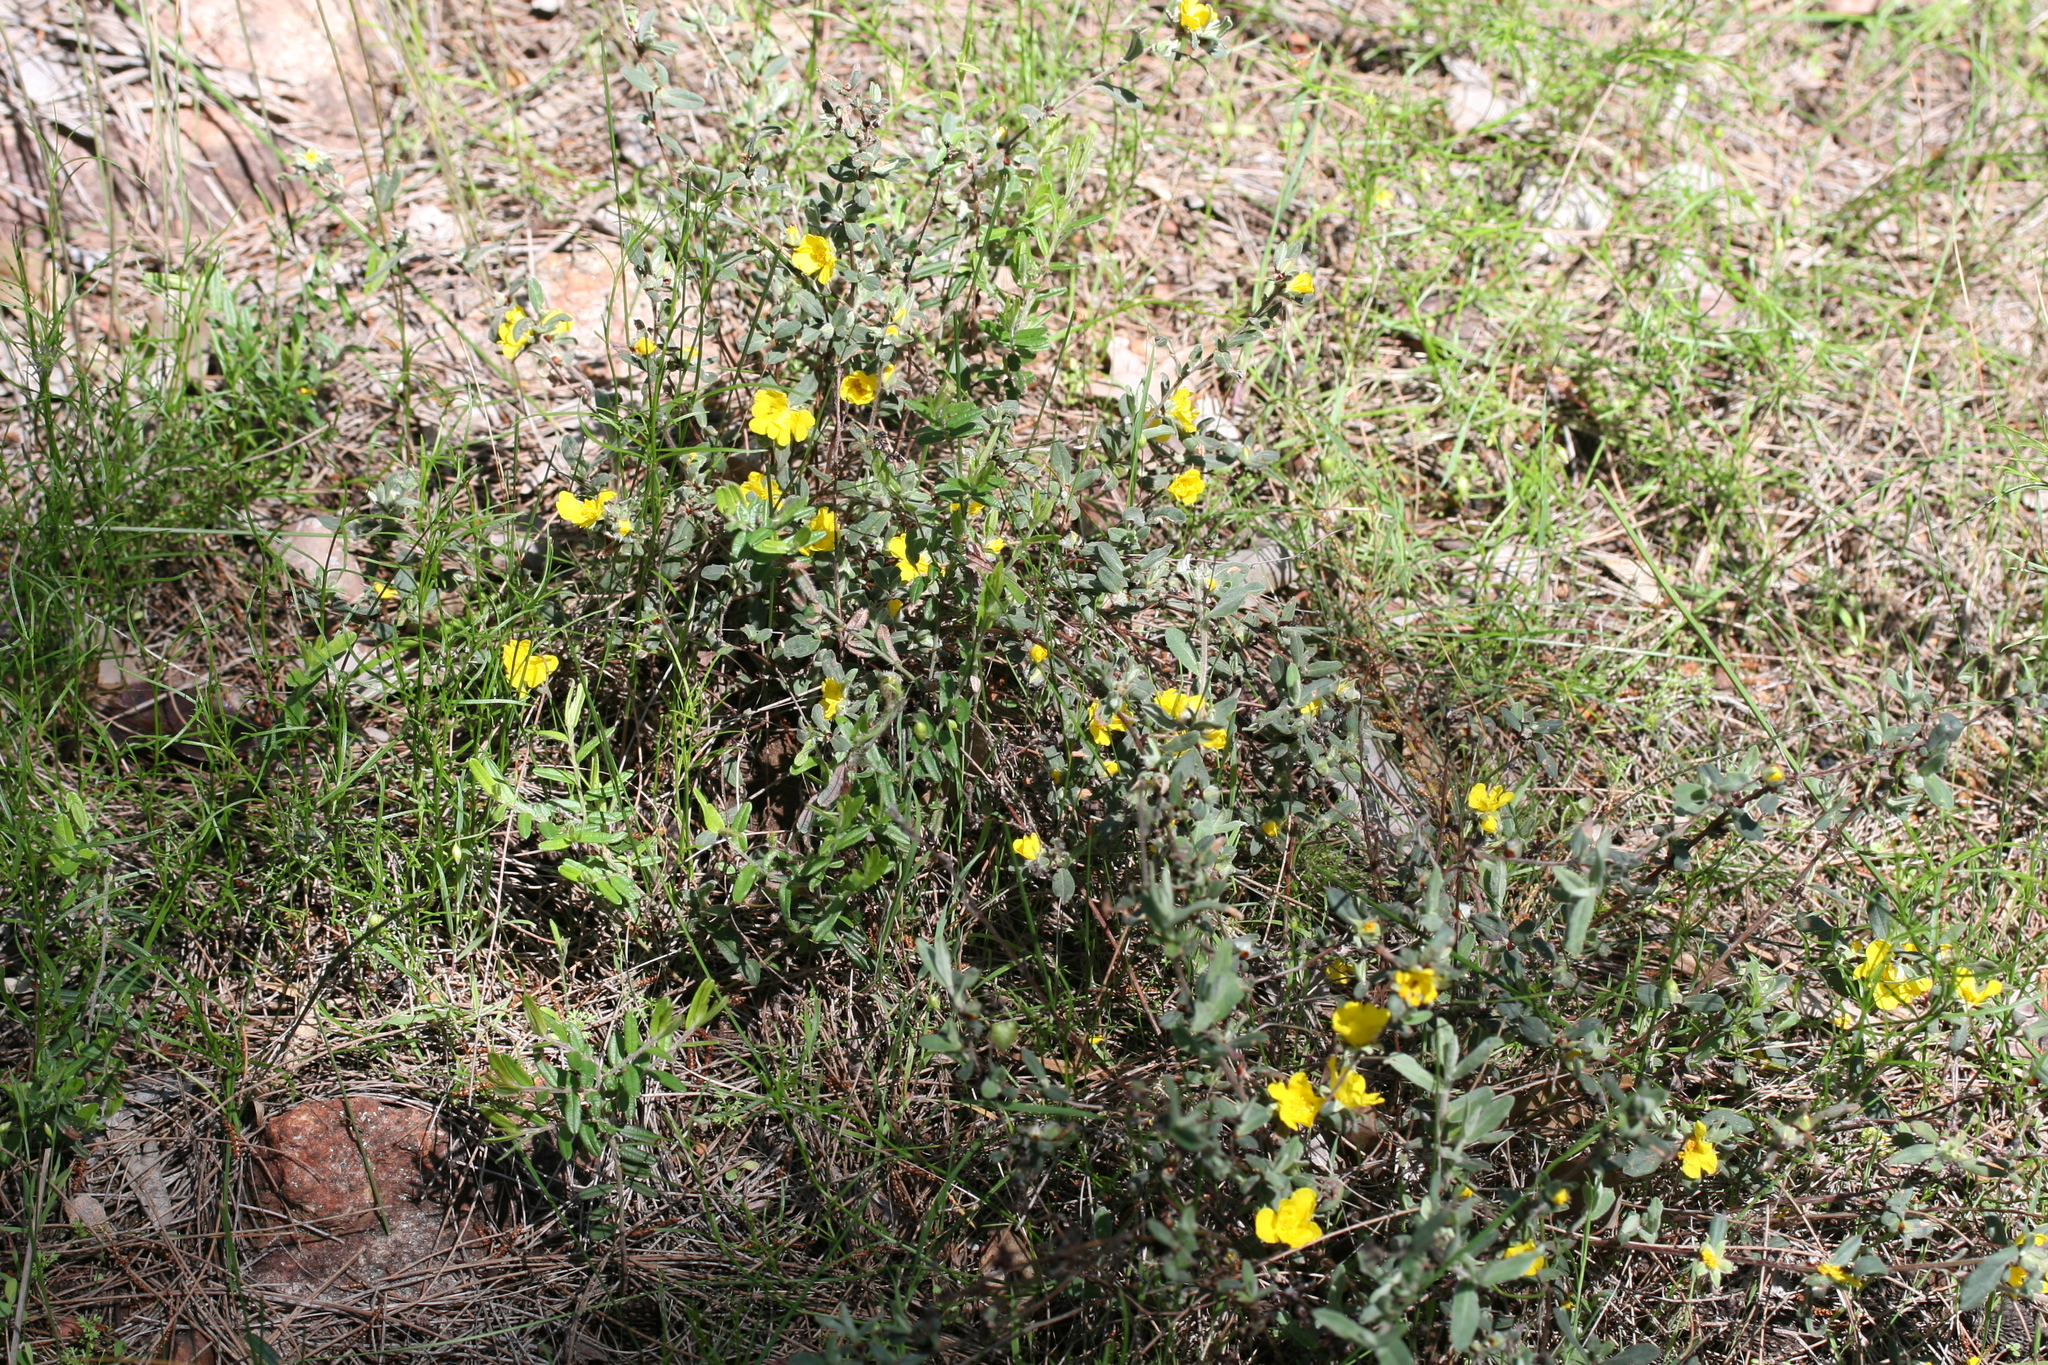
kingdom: Plantae
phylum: Tracheophyta
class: Magnoliopsida
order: Dilleniales
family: Dilleniaceae
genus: Hibbertia
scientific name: Hibbertia commutata
